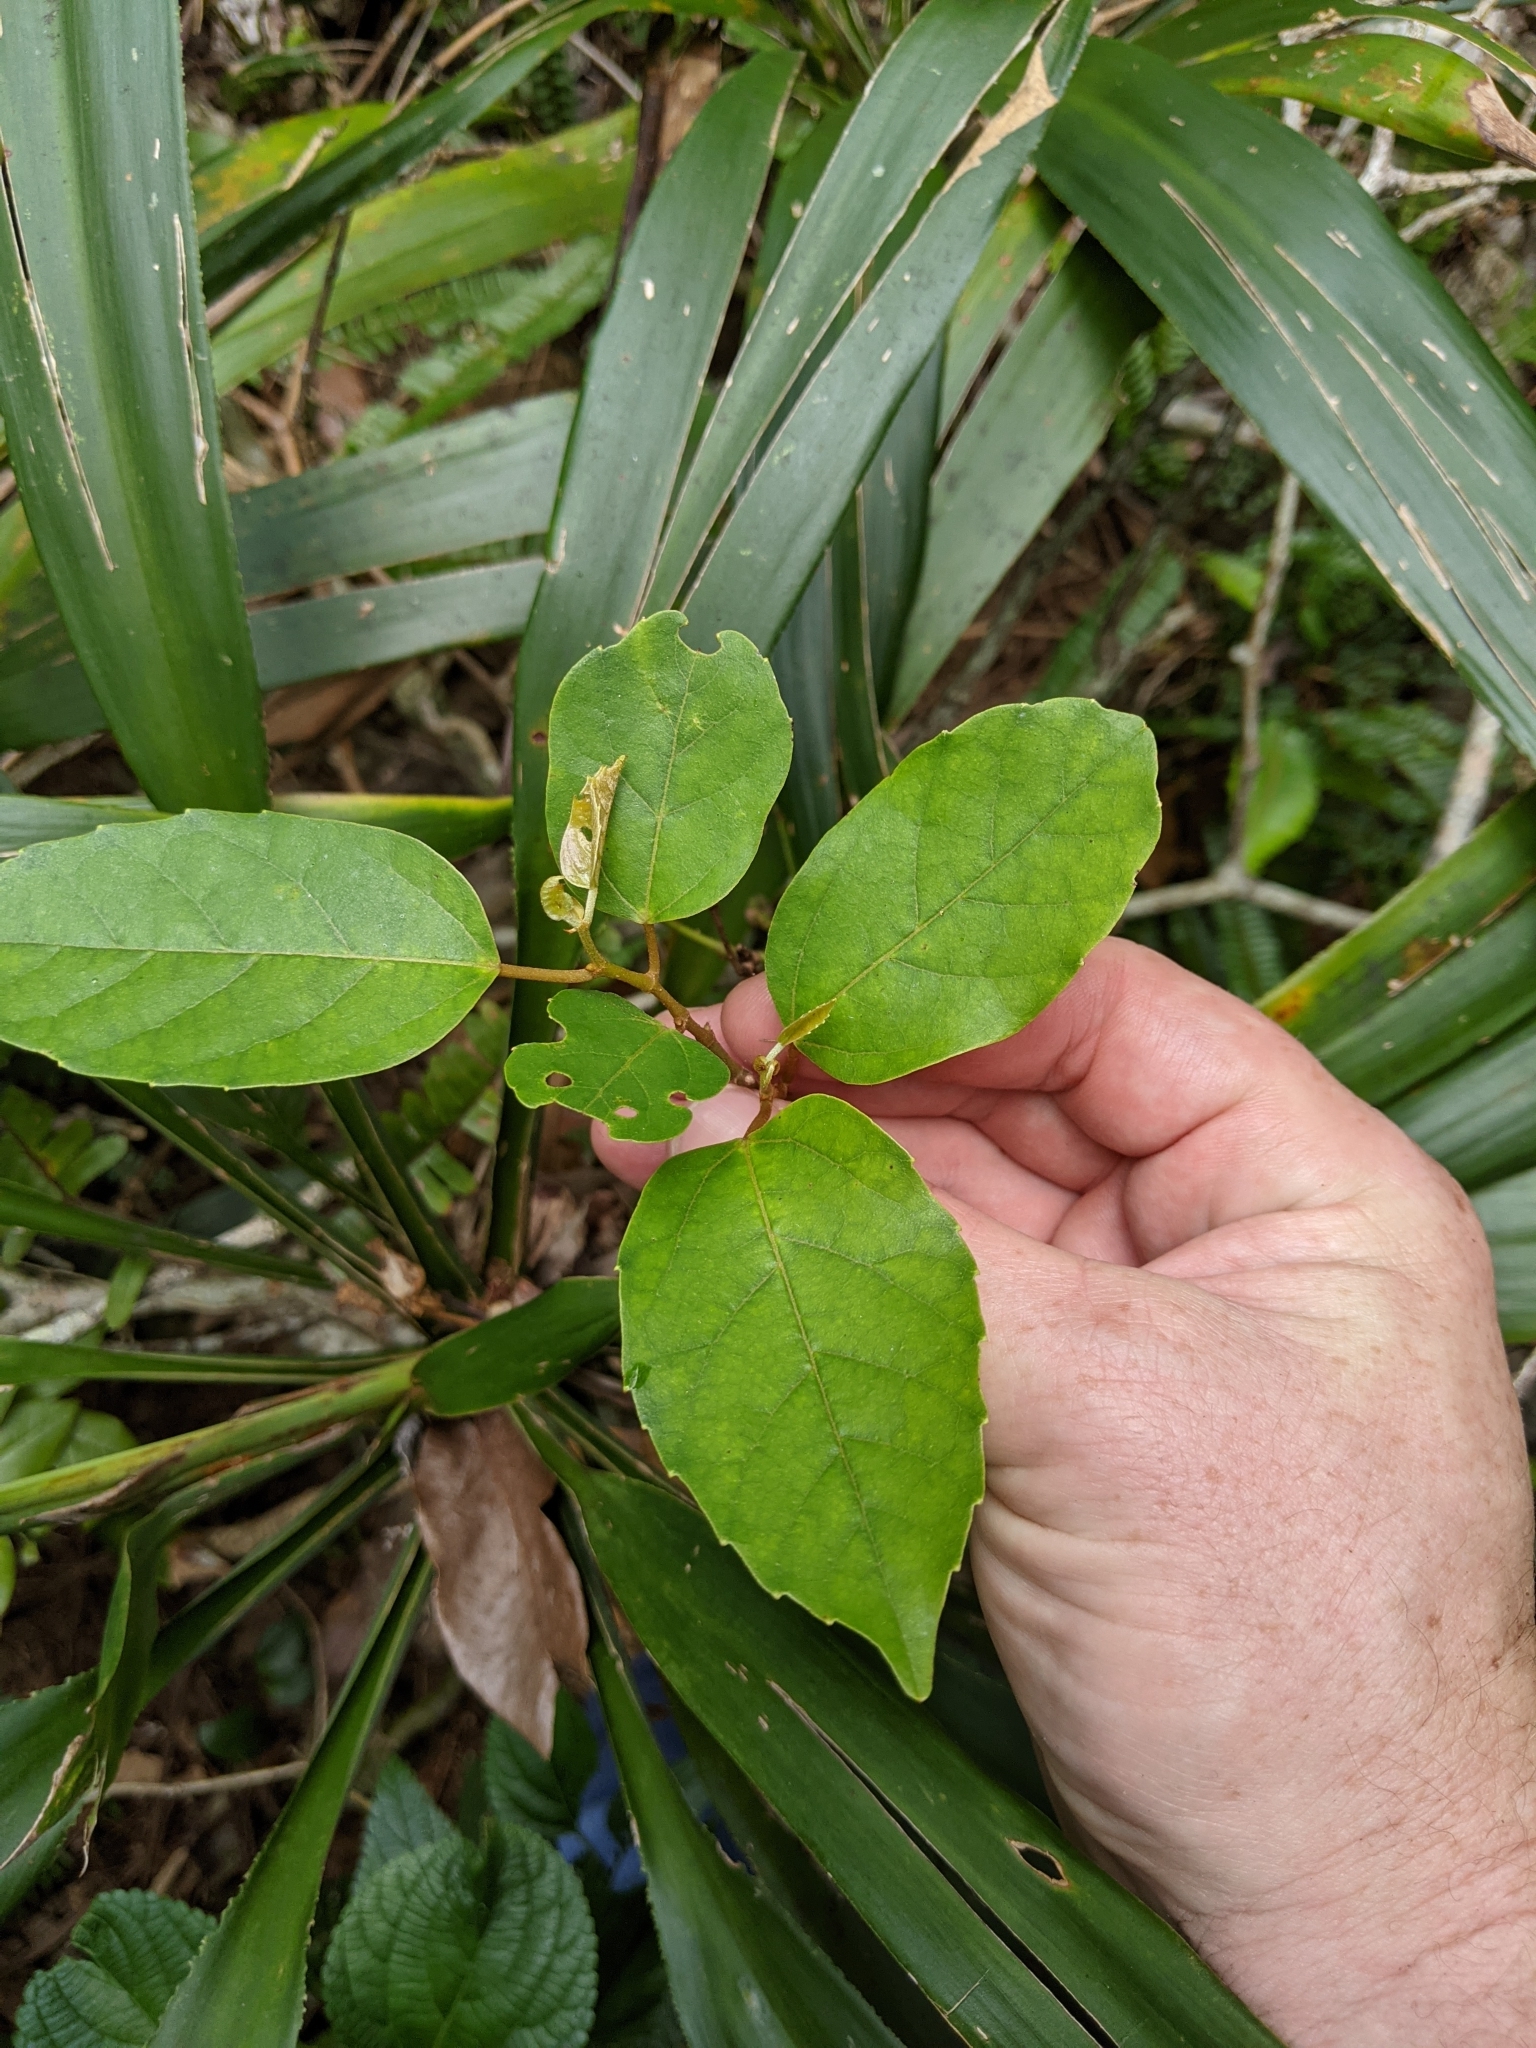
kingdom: Plantae
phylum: Tracheophyta
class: Magnoliopsida
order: Vitales
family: Vitaceae
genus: Cissus
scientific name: Cissus antarctica
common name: Kangaroo vine
